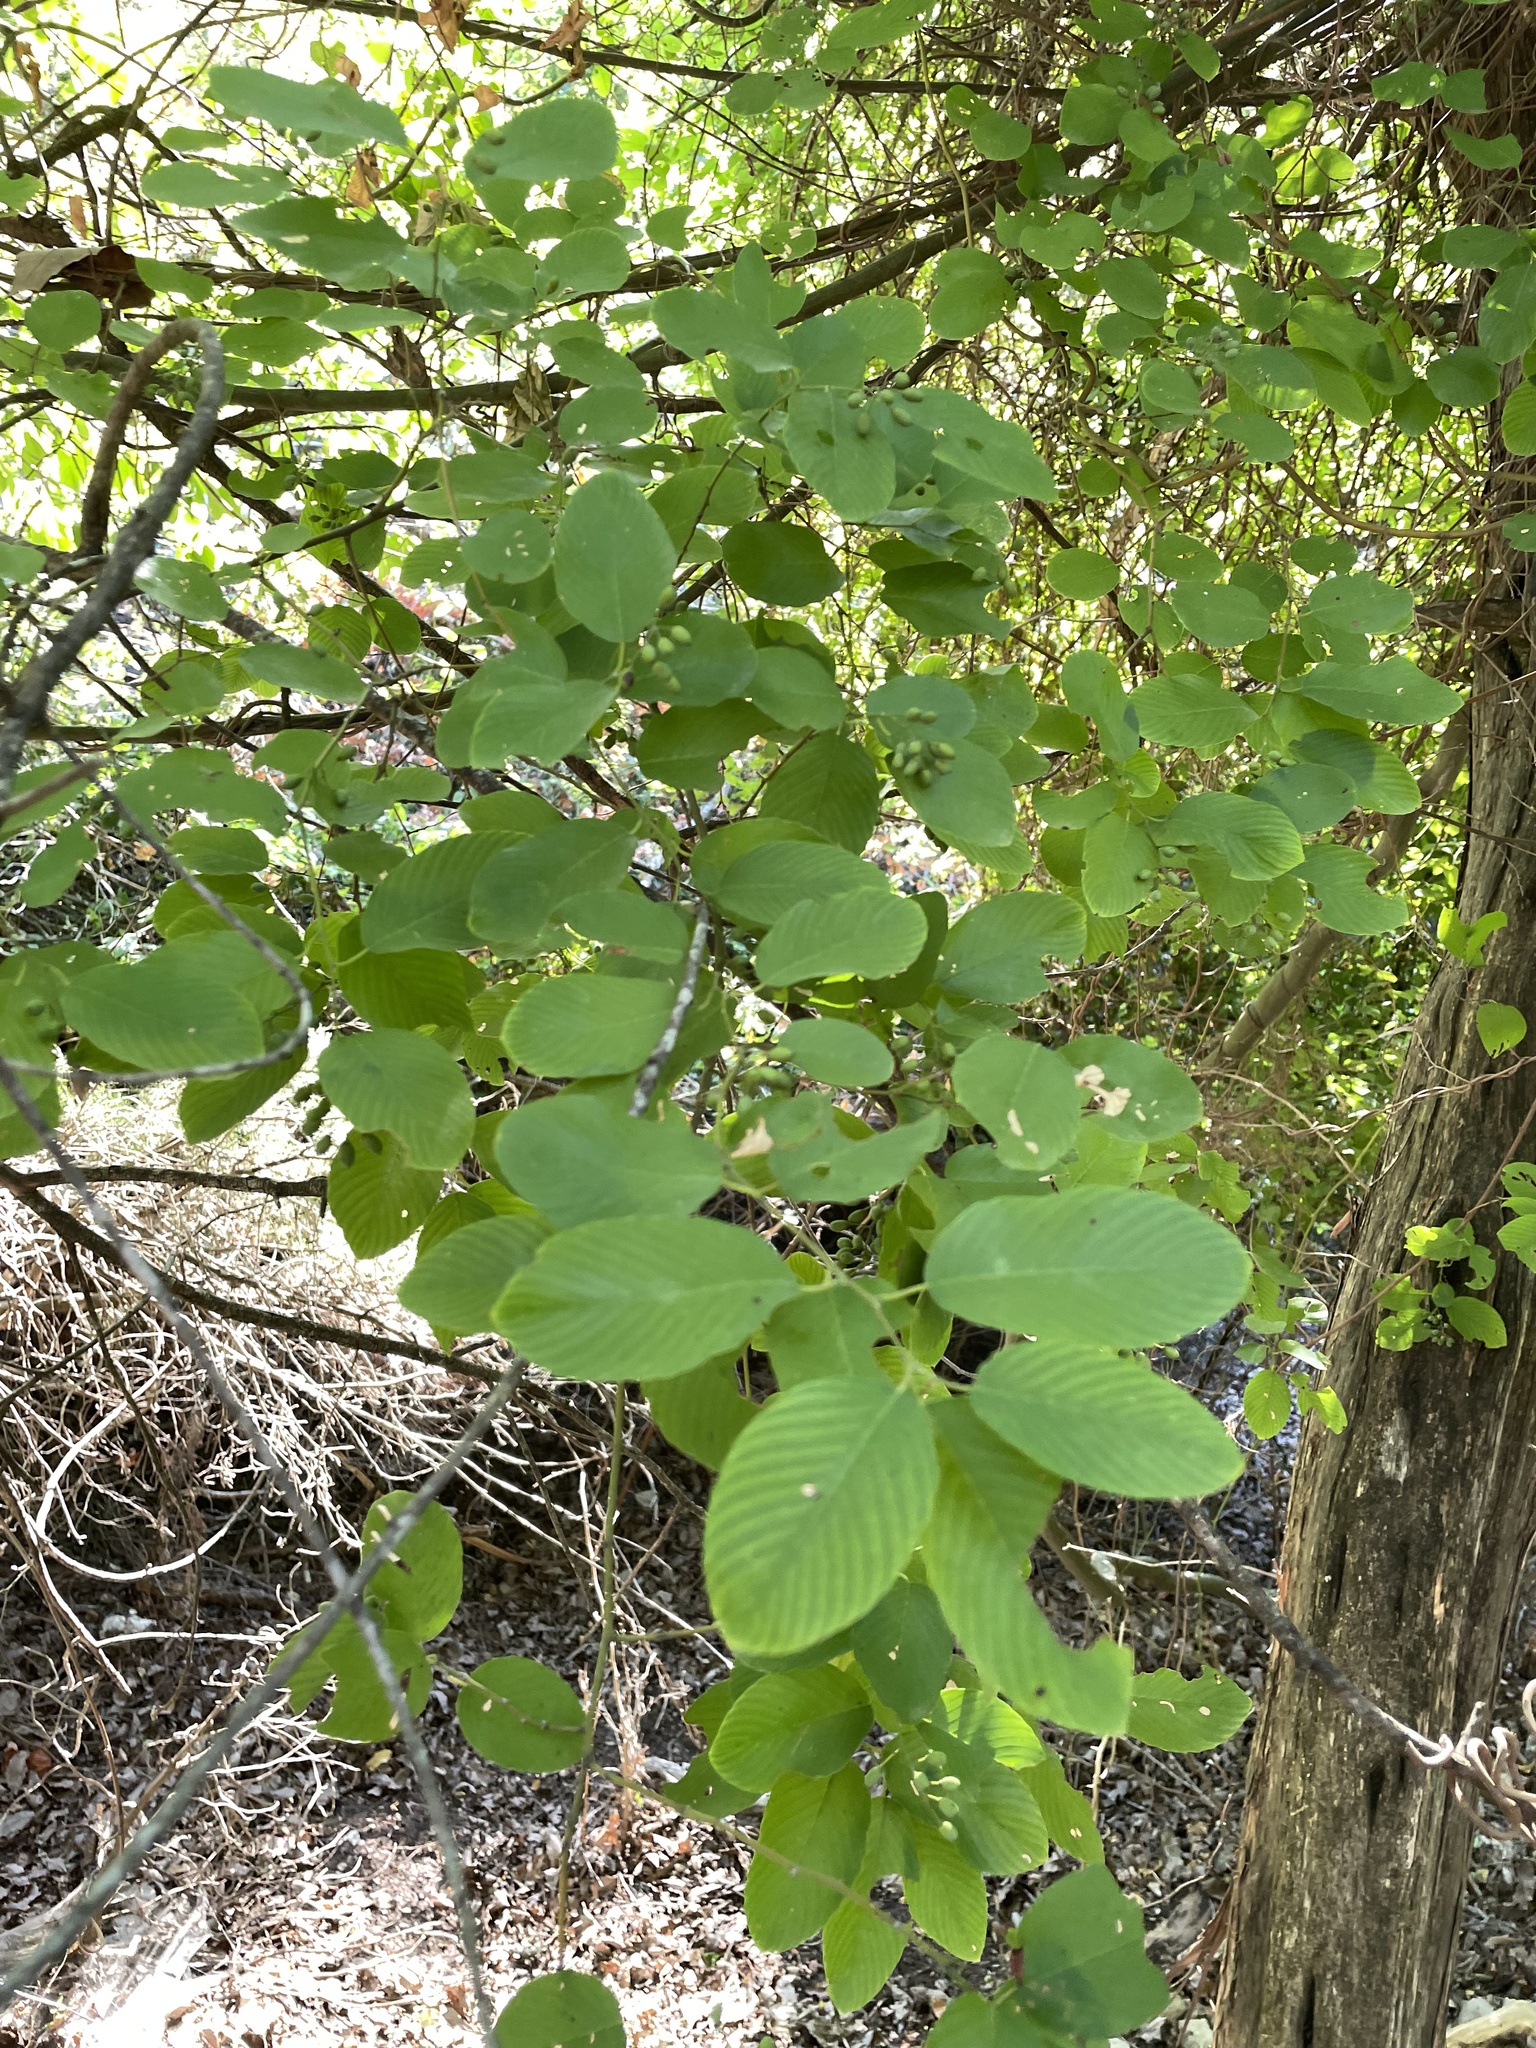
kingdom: Plantae
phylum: Tracheophyta
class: Magnoliopsida
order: Rosales
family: Rhamnaceae
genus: Berchemia
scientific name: Berchemia scandens
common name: Supplejack
